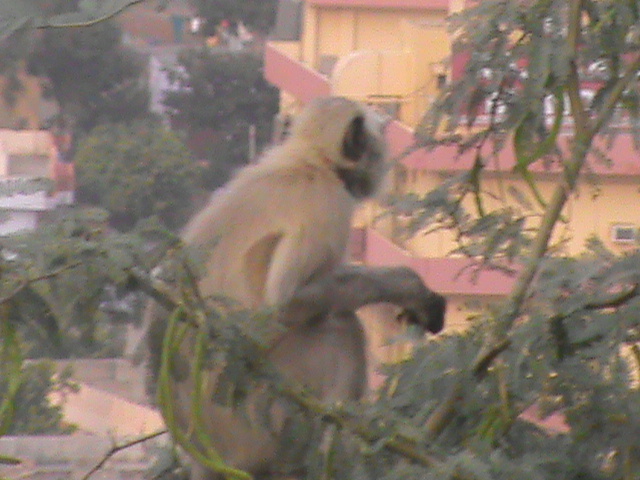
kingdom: Animalia
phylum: Chordata
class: Mammalia
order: Primates
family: Cercopithecidae
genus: Semnopithecus
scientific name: Semnopithecus entellus
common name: Northern plains gray langur
